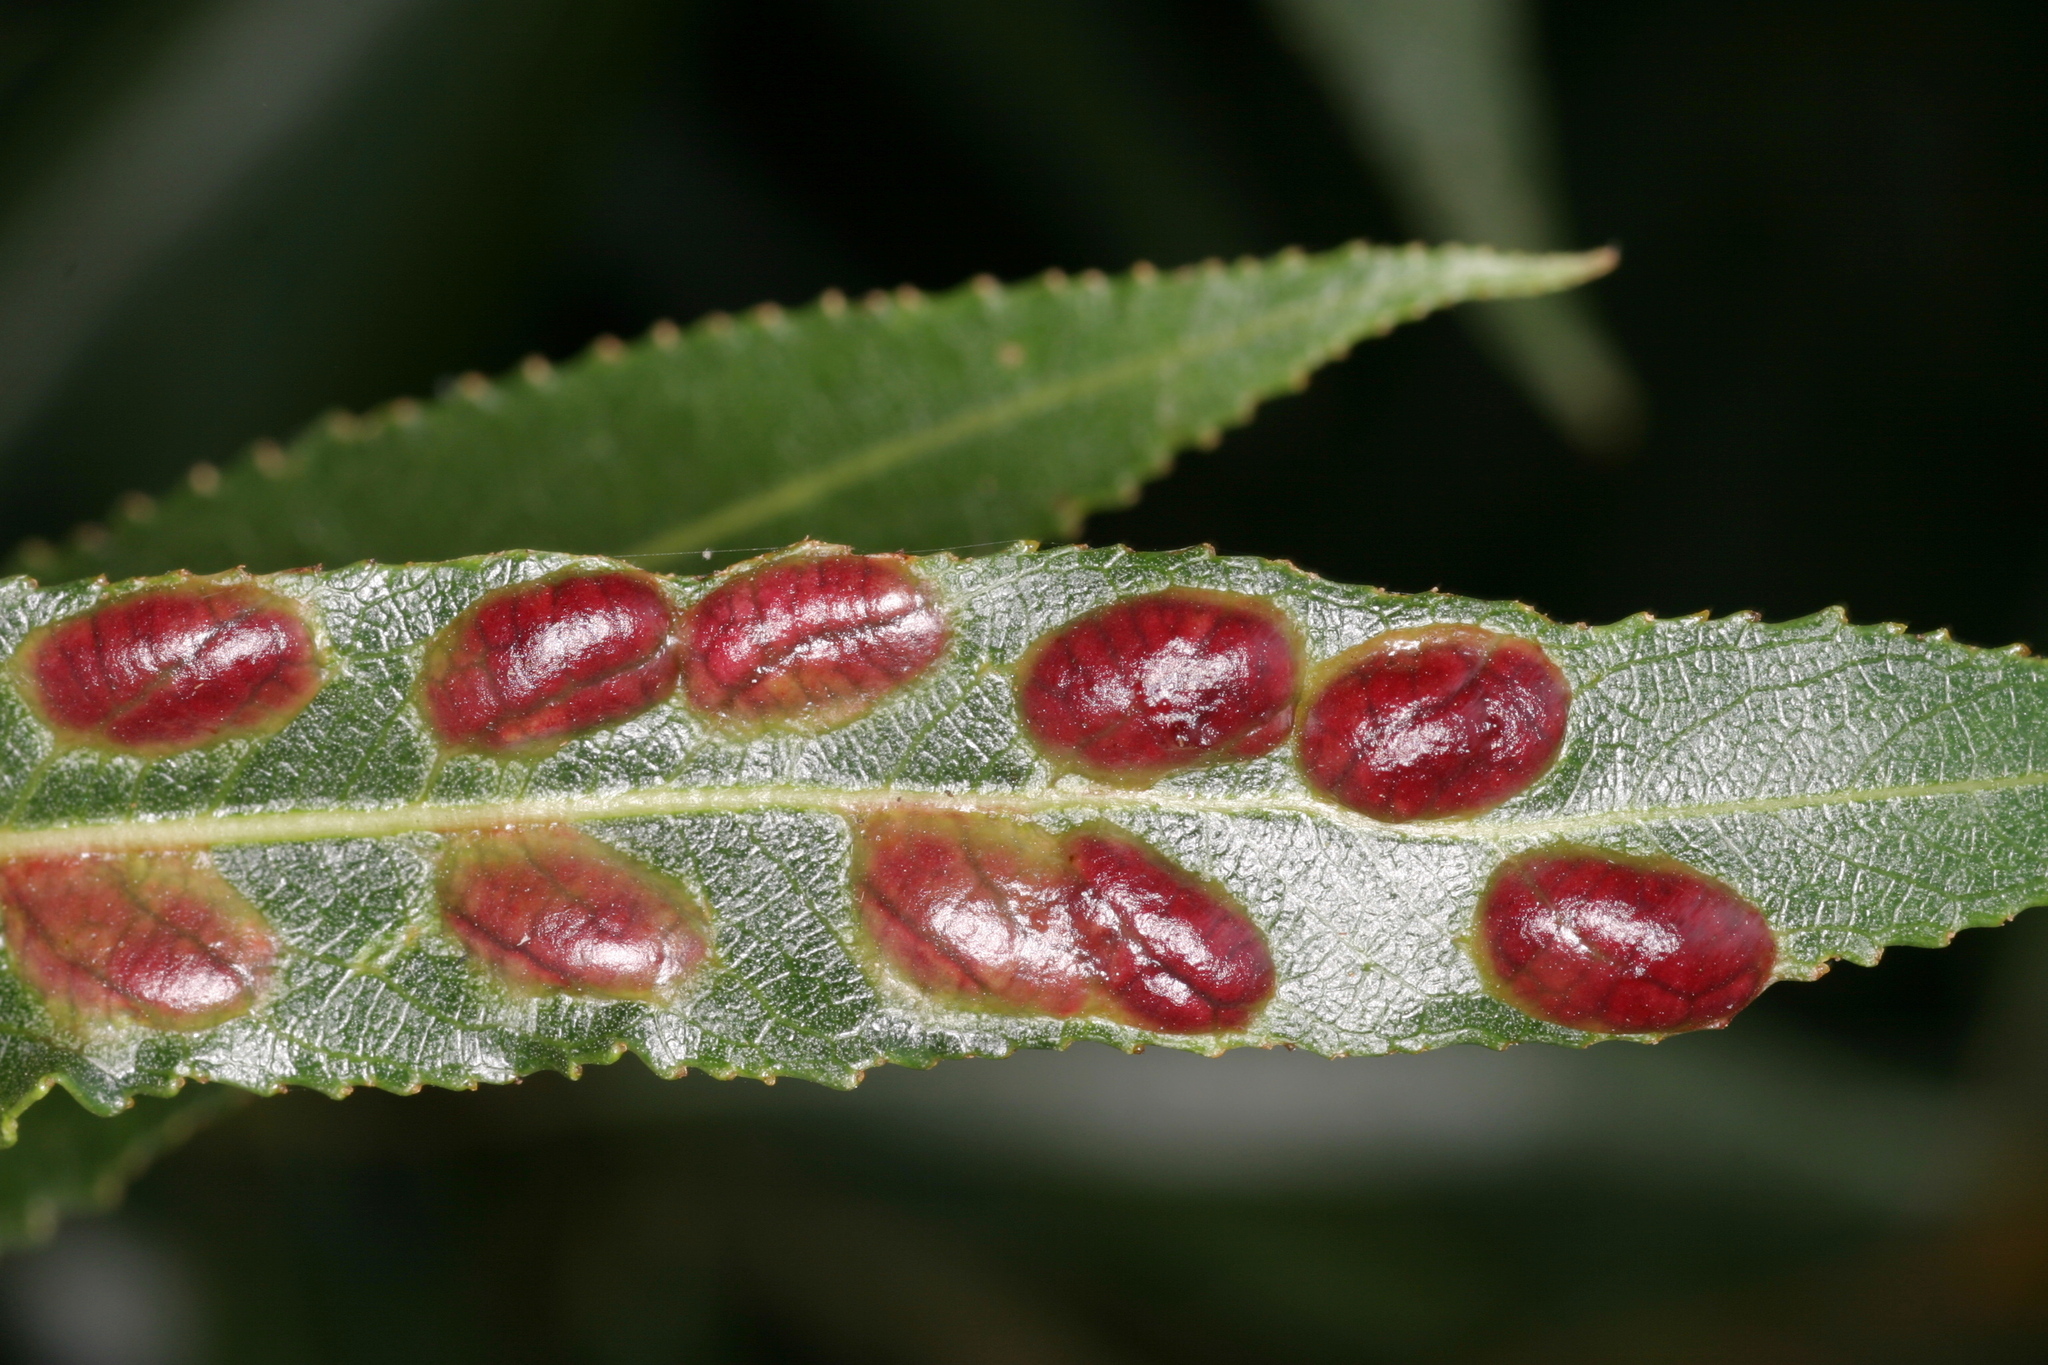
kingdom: Animalia
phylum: Arthropoda
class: Insecta
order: Hymenoptera
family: Tenthredinidae
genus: Pontania
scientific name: Pontania proxima
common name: Common sawfly
